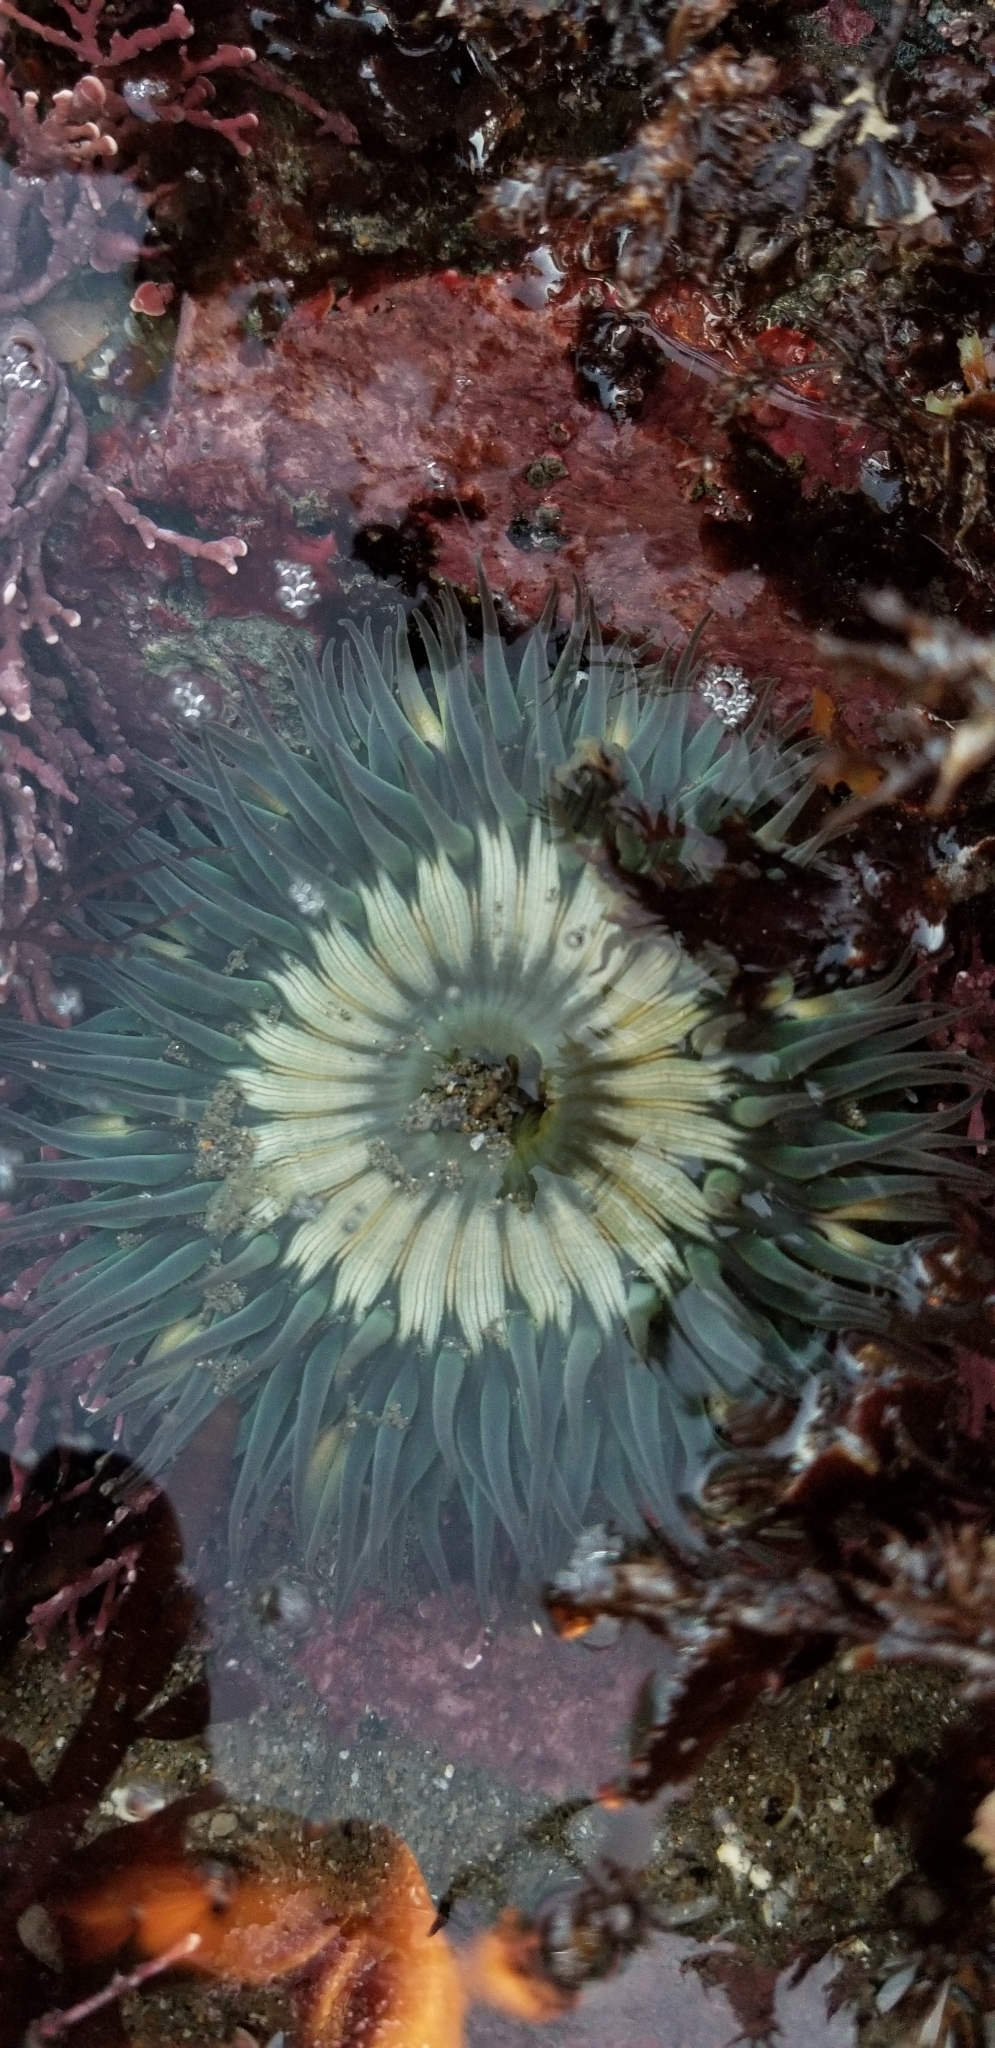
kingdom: Animalia
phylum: Cnidaria
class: Anthozoa
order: Actiniaria
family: Actiniidae
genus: Anthopleura
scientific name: Anthopleura sola
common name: Sun anemone
